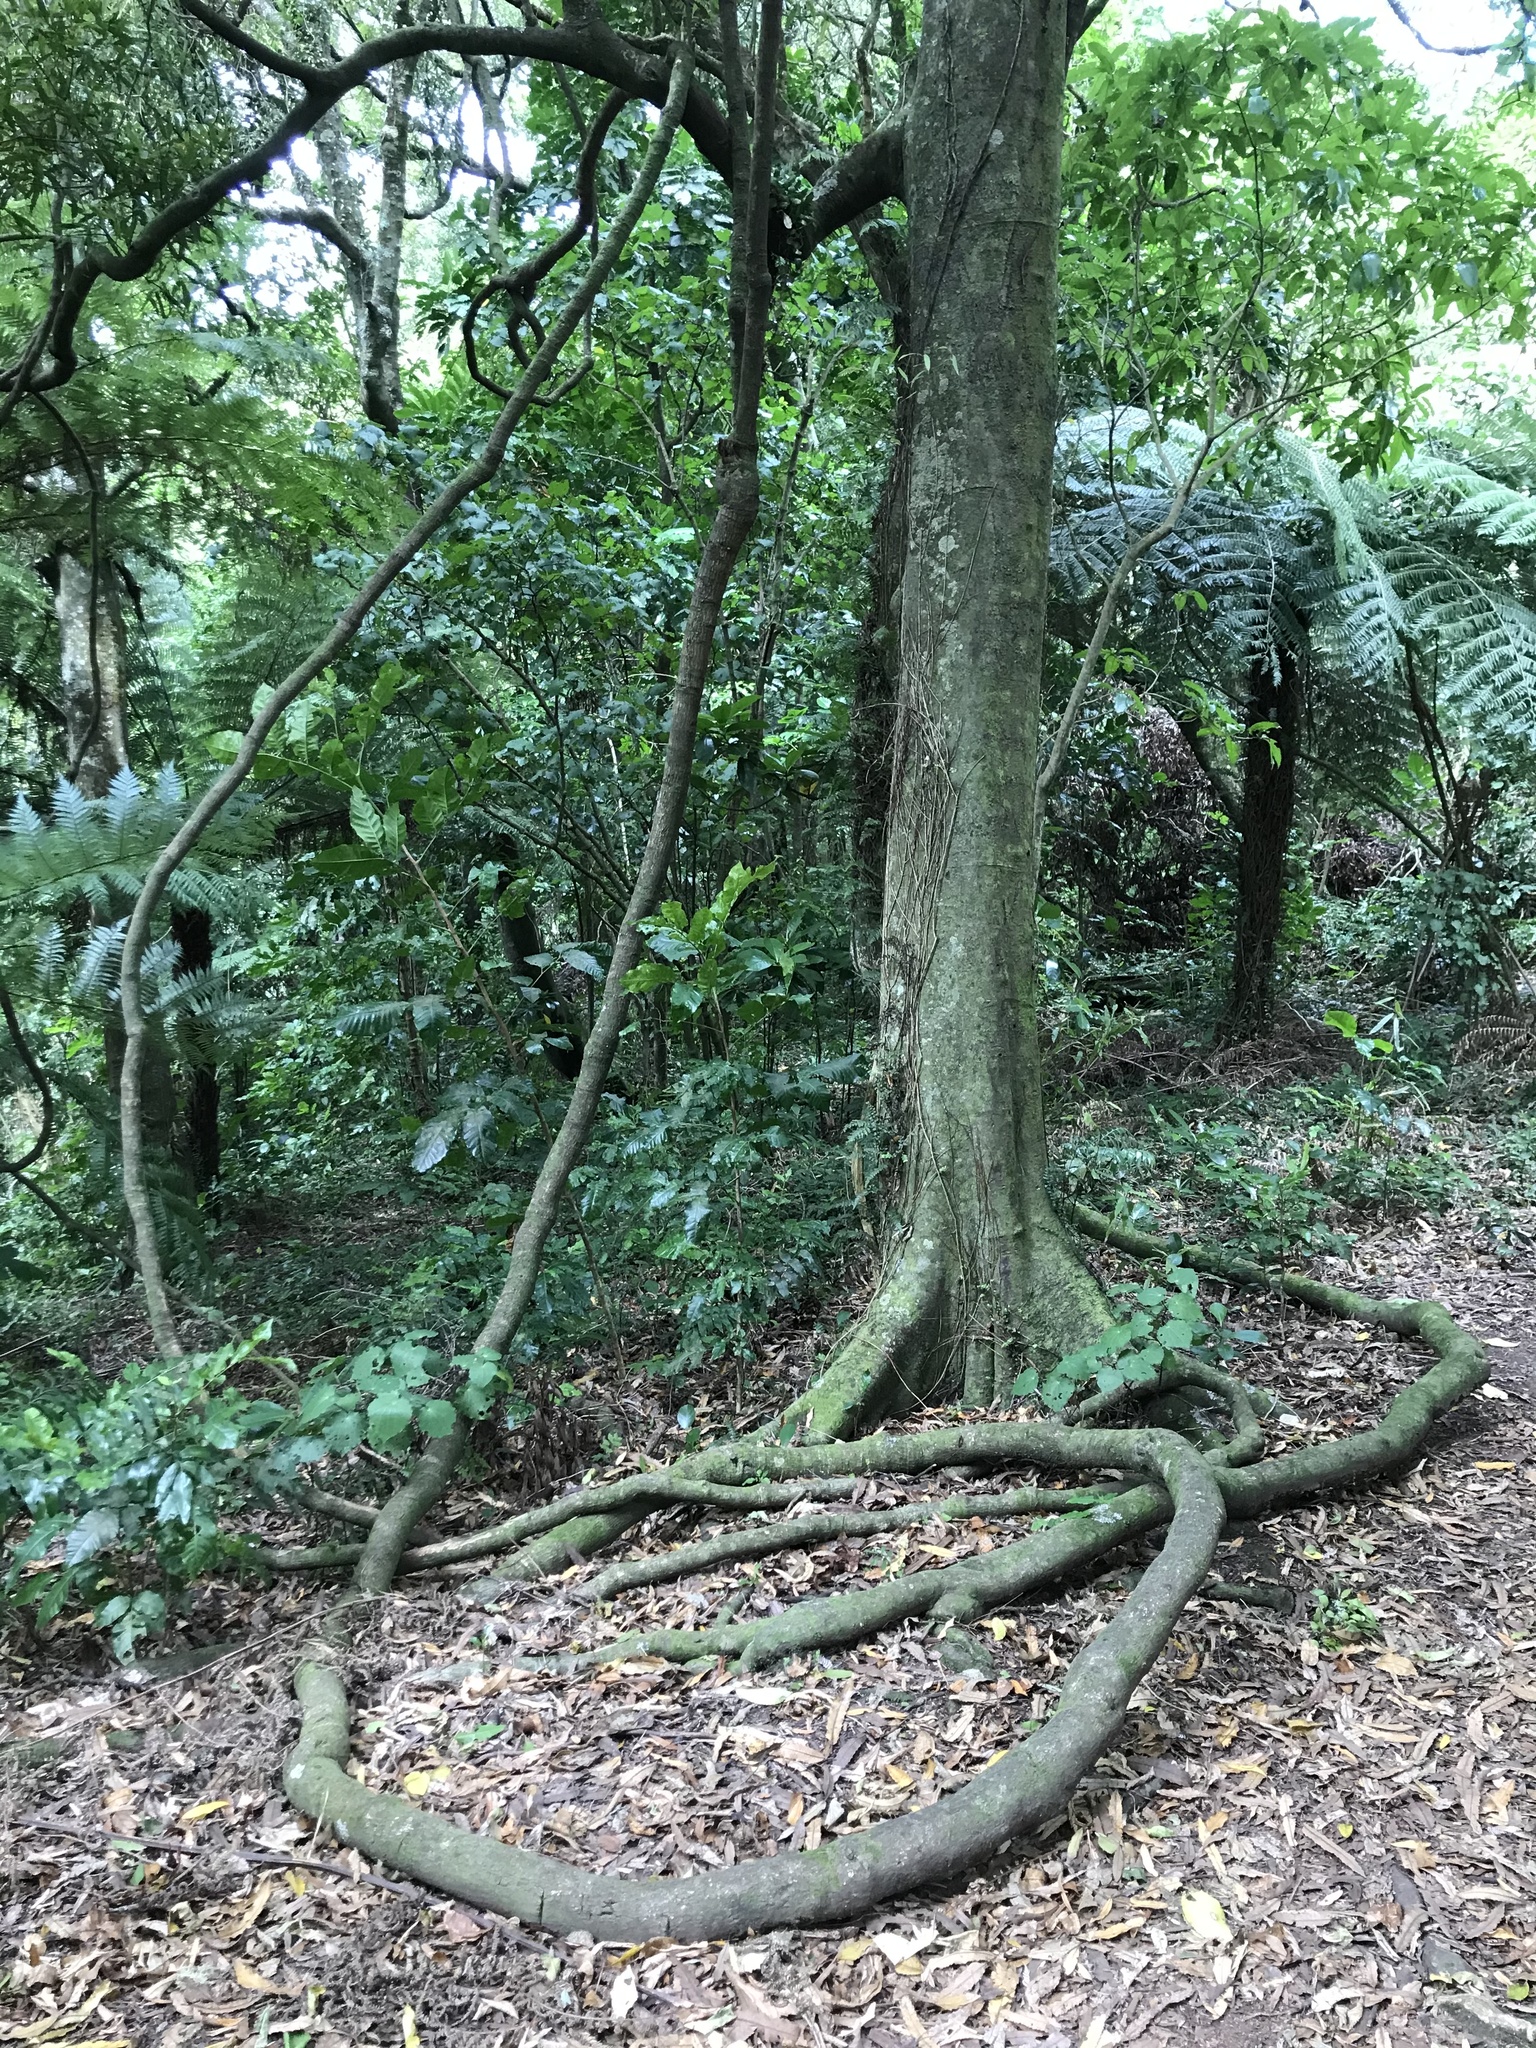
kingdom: Plantae
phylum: Tracheophyta
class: Magnoliopsida
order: Malpighiales
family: Passifloraceae
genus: Passiflora
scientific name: Passiflora tetrandra
